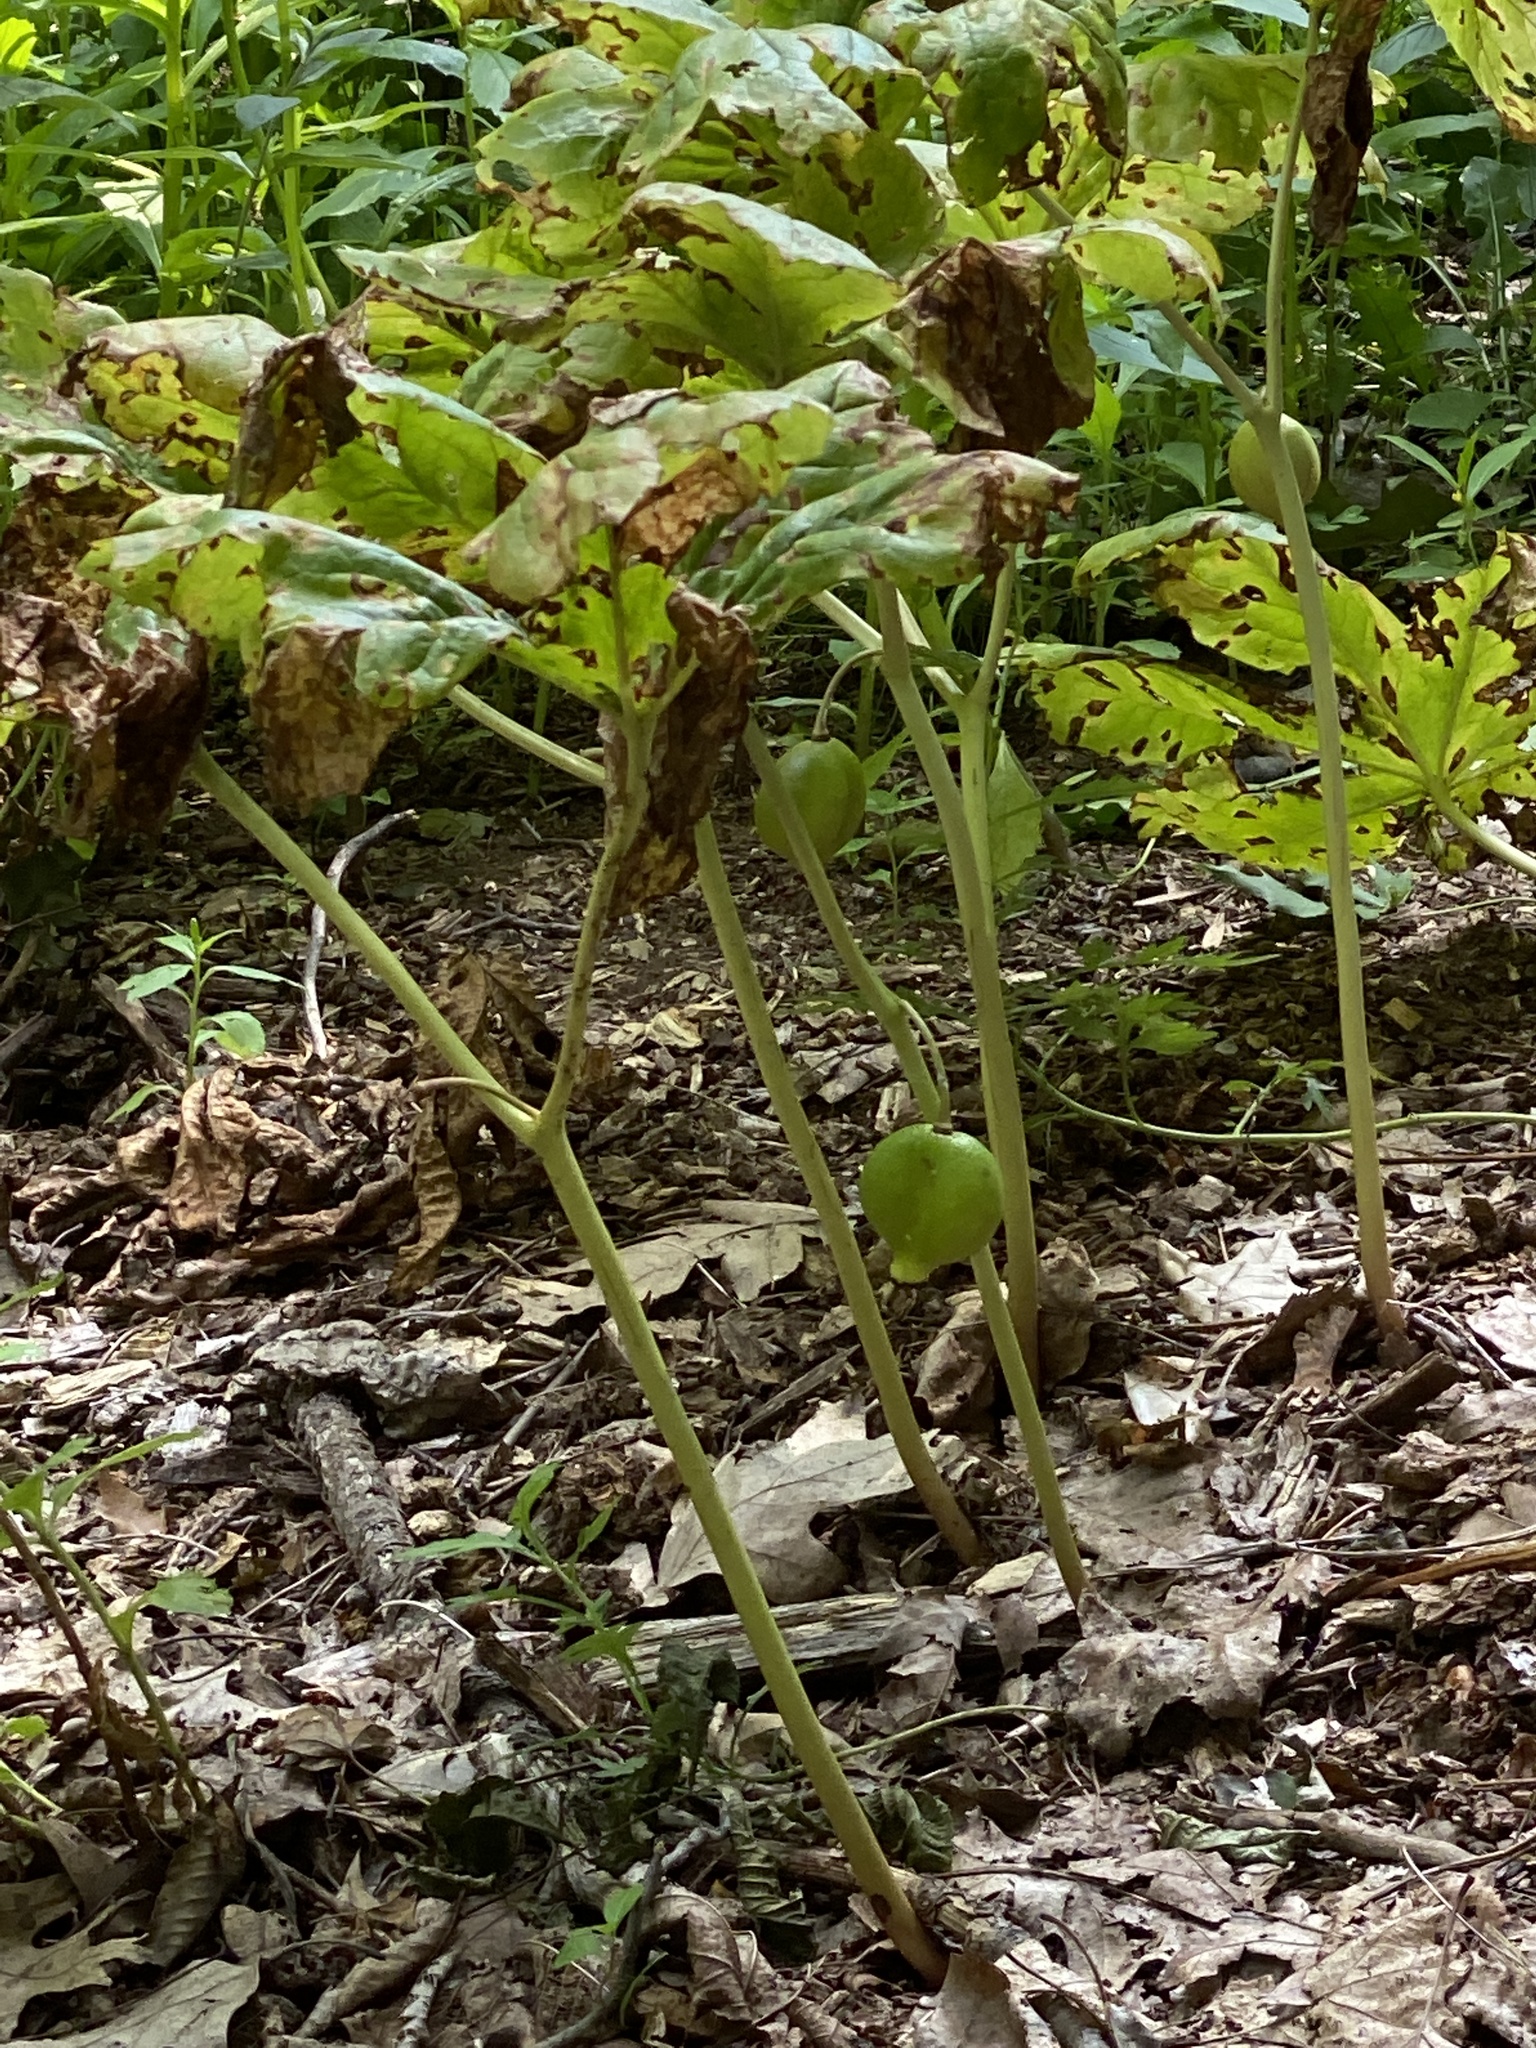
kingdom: Plantae
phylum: Tracheophyta
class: Magnoliopsida
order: Ranunculales
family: Berberidaceae
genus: Podophyllum
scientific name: Podophyllum peltatum
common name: Wild mandrake
